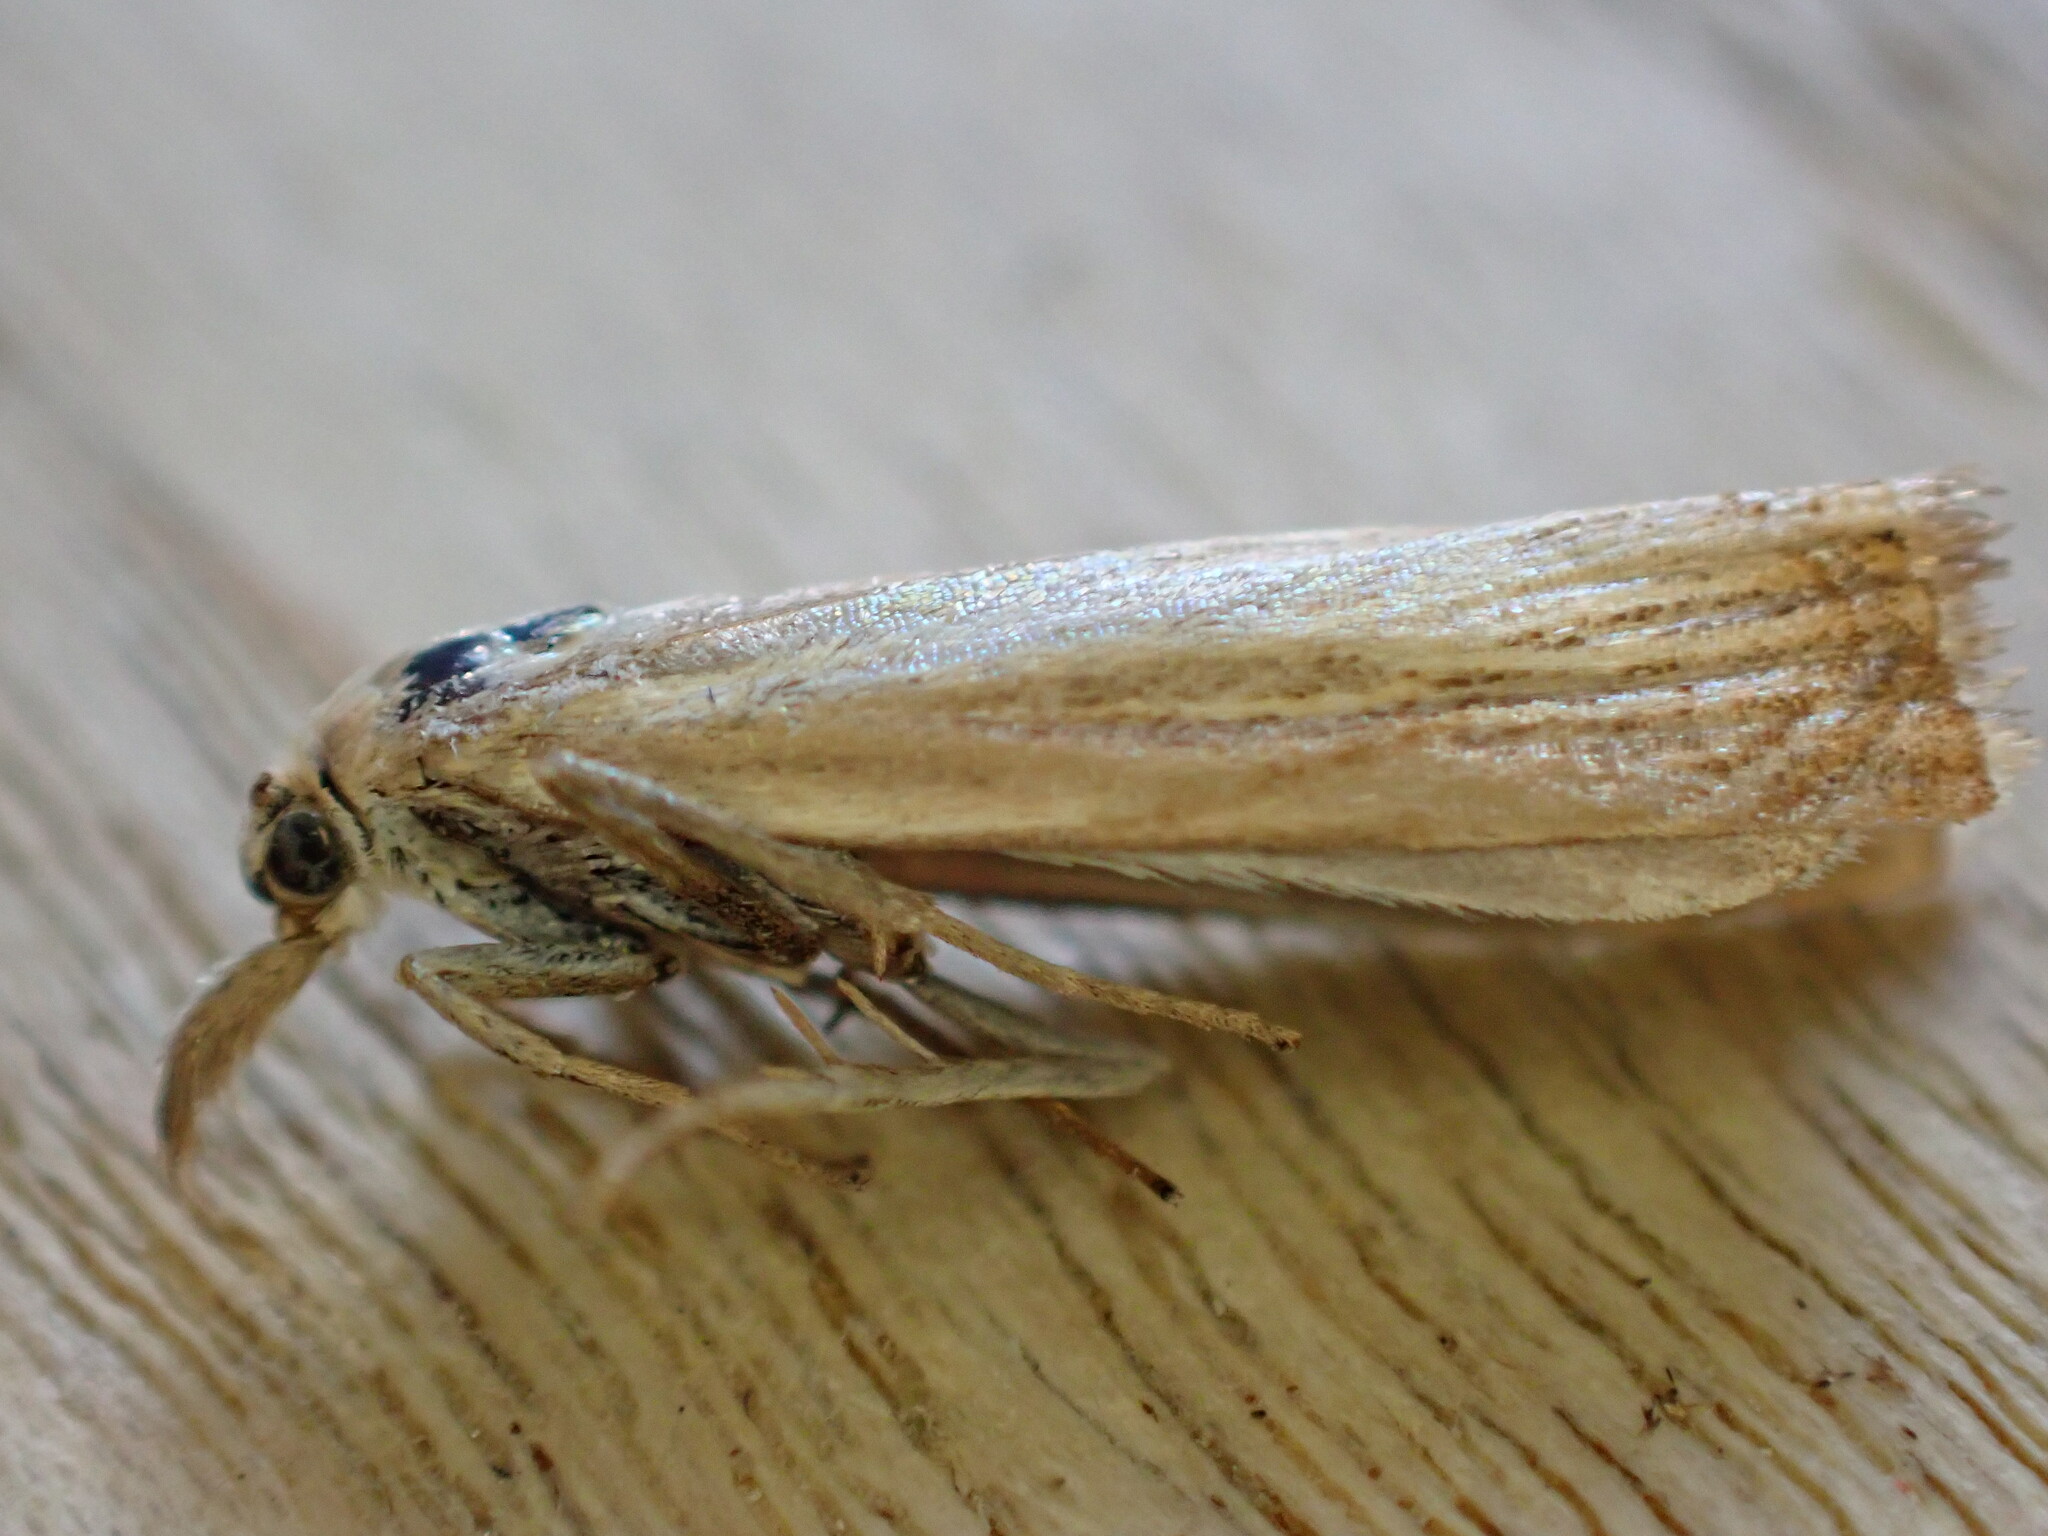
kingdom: Animalia
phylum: Arthropoda
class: Insecta
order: Lepidoptera
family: Crambidae
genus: Agriphila
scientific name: Agriphila straminella
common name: Straw grass-veneer
